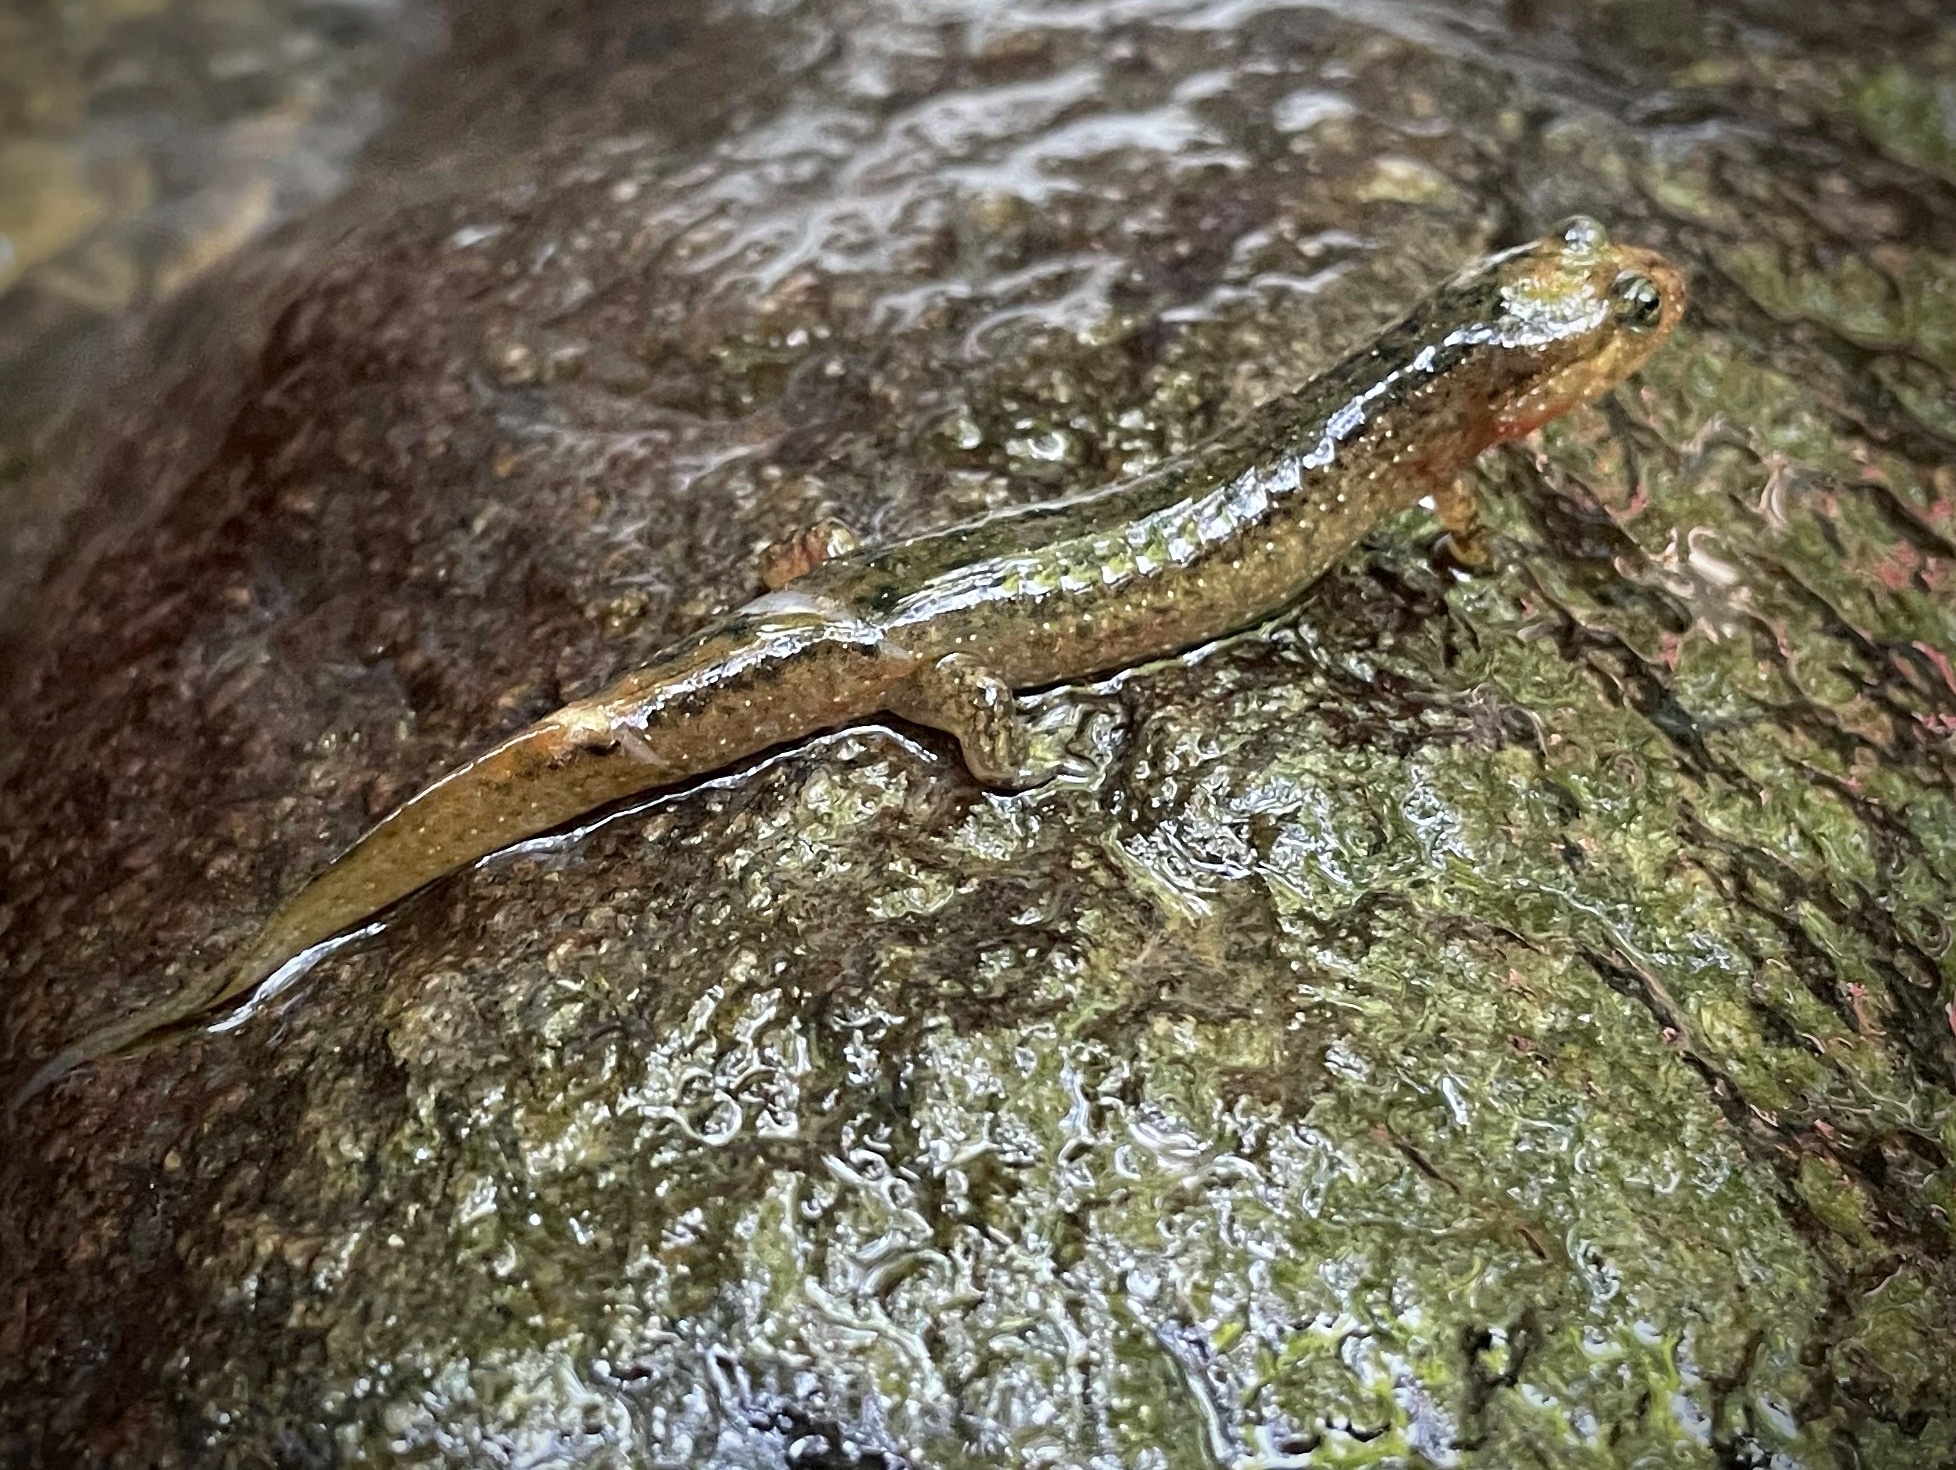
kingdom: Animalia
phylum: Chordata
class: Amphibia
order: Caudata
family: Plethodontidae
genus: Desmognathus
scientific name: Desmognathus
